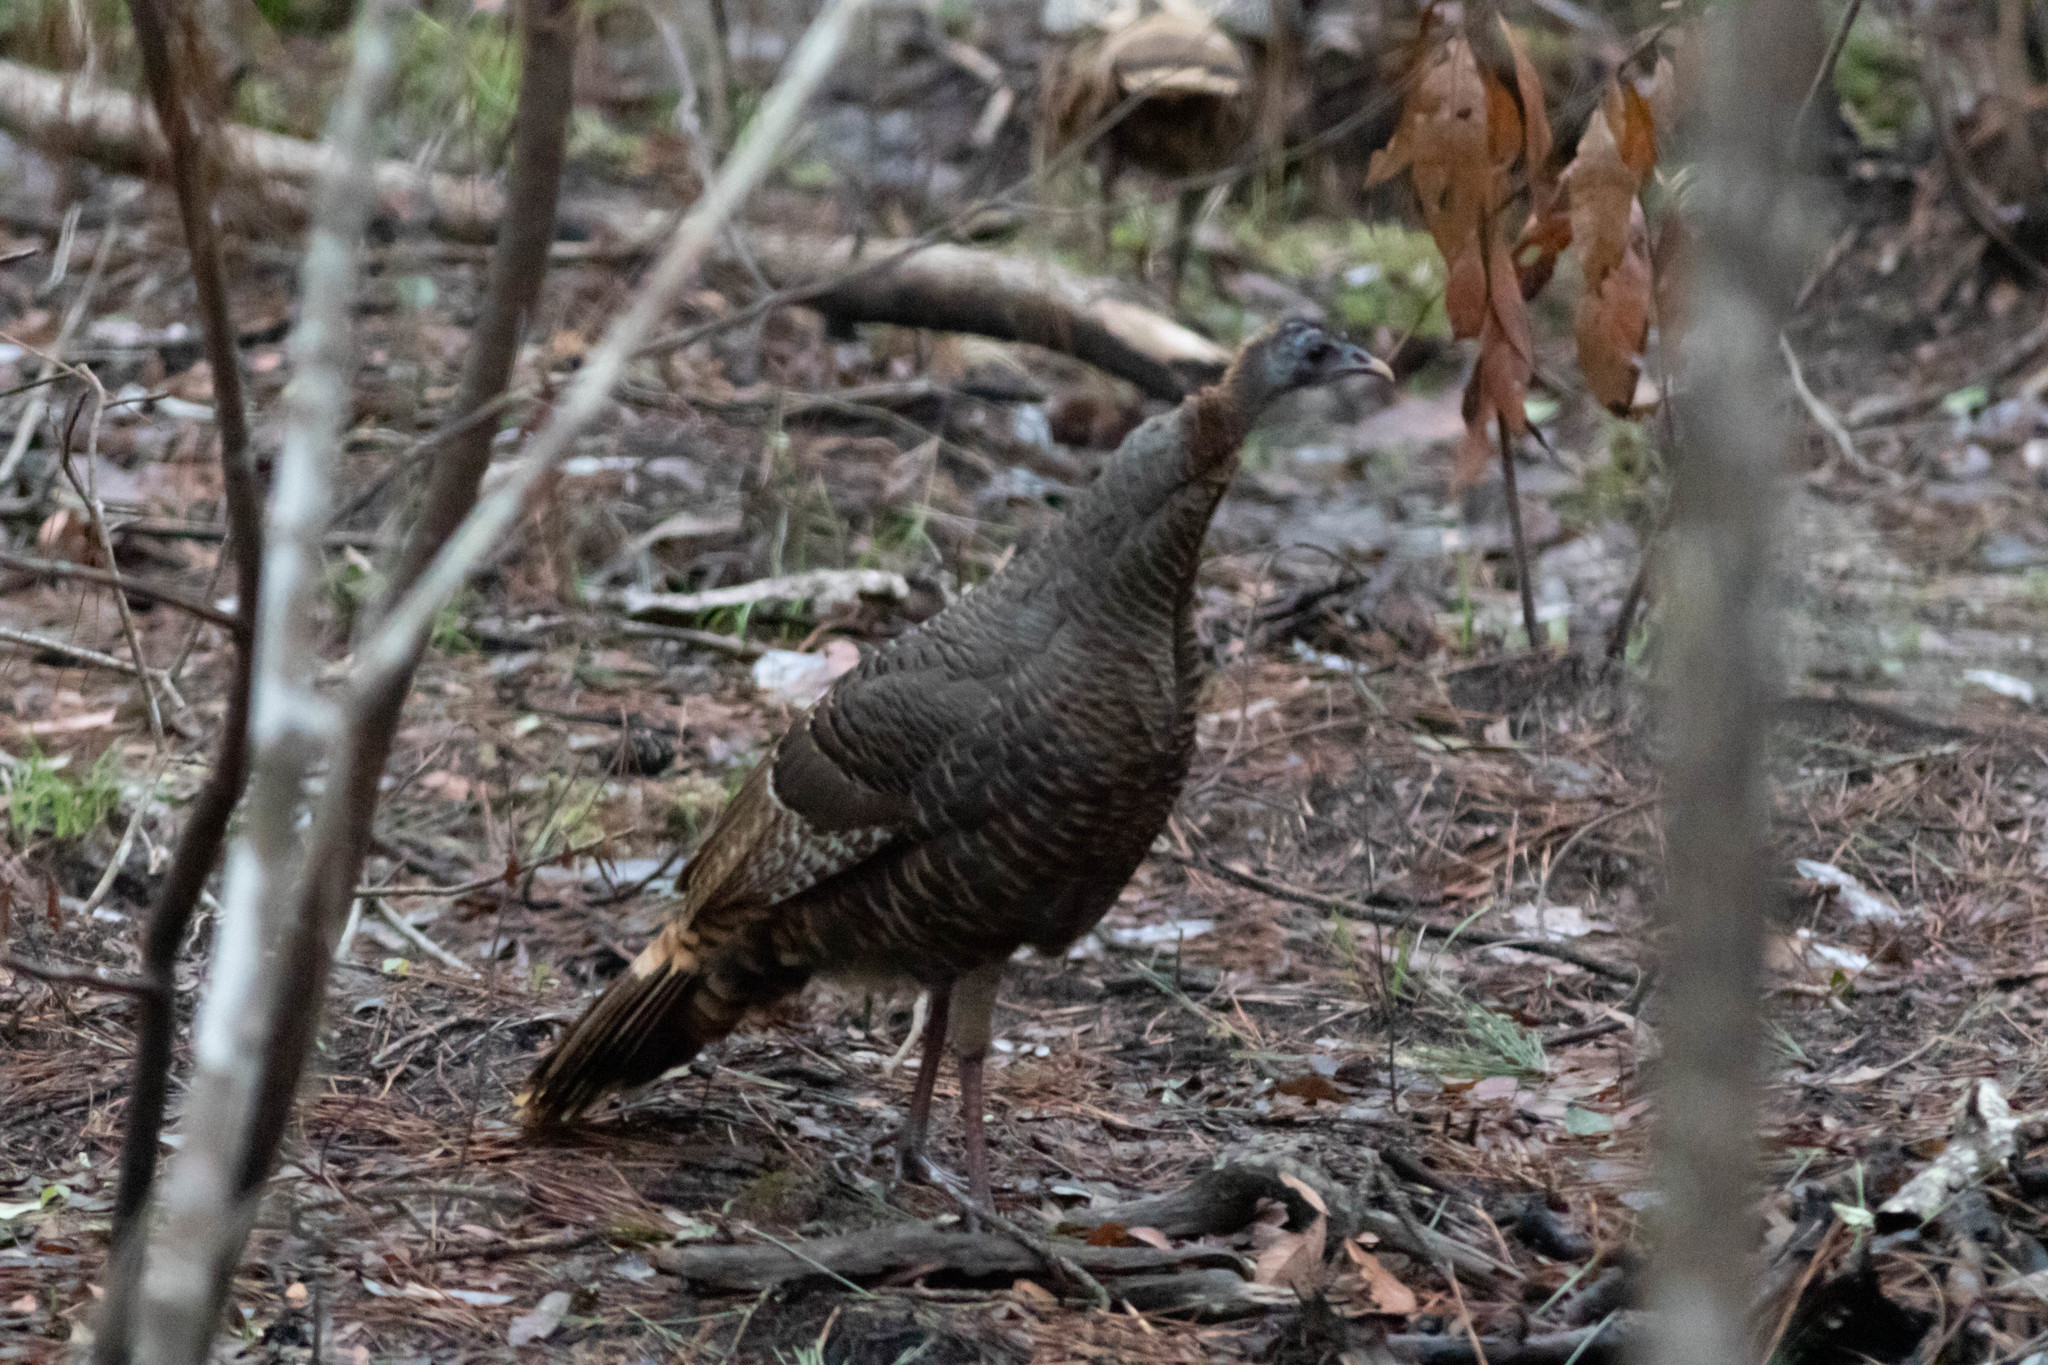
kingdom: Animalia
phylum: Chordata
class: Aves
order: Galliformes
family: Phasianidae
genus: Meleagris
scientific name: Meleagris gallopavo
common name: Wild turkey
